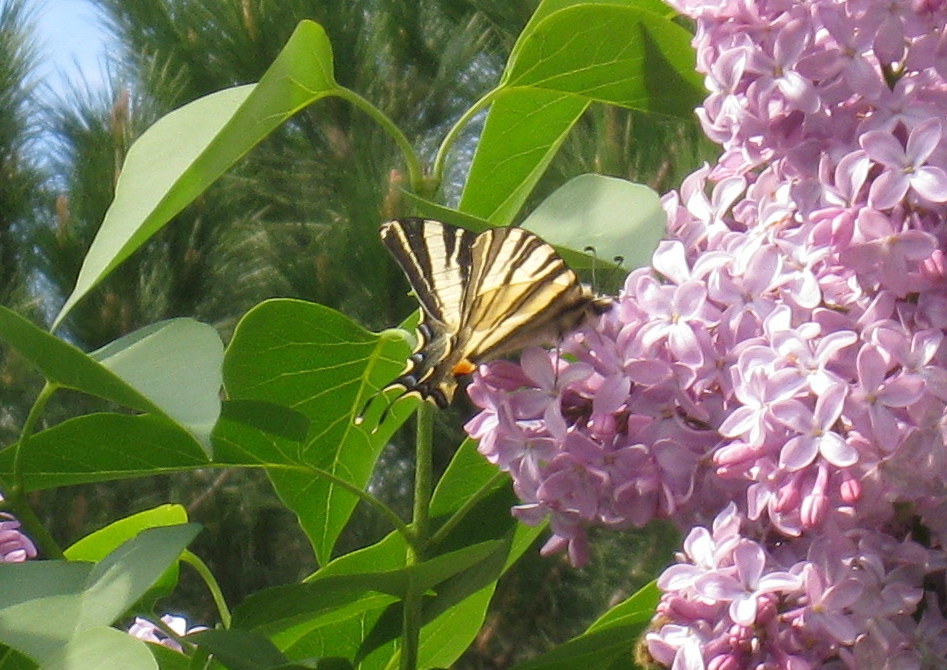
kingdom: Animalia
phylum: Arthropoda
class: Insecta
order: Lepidoptera
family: Papilionidae
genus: Iphiclides
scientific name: Iphiclides podalirius
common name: Scarce swallowtail
